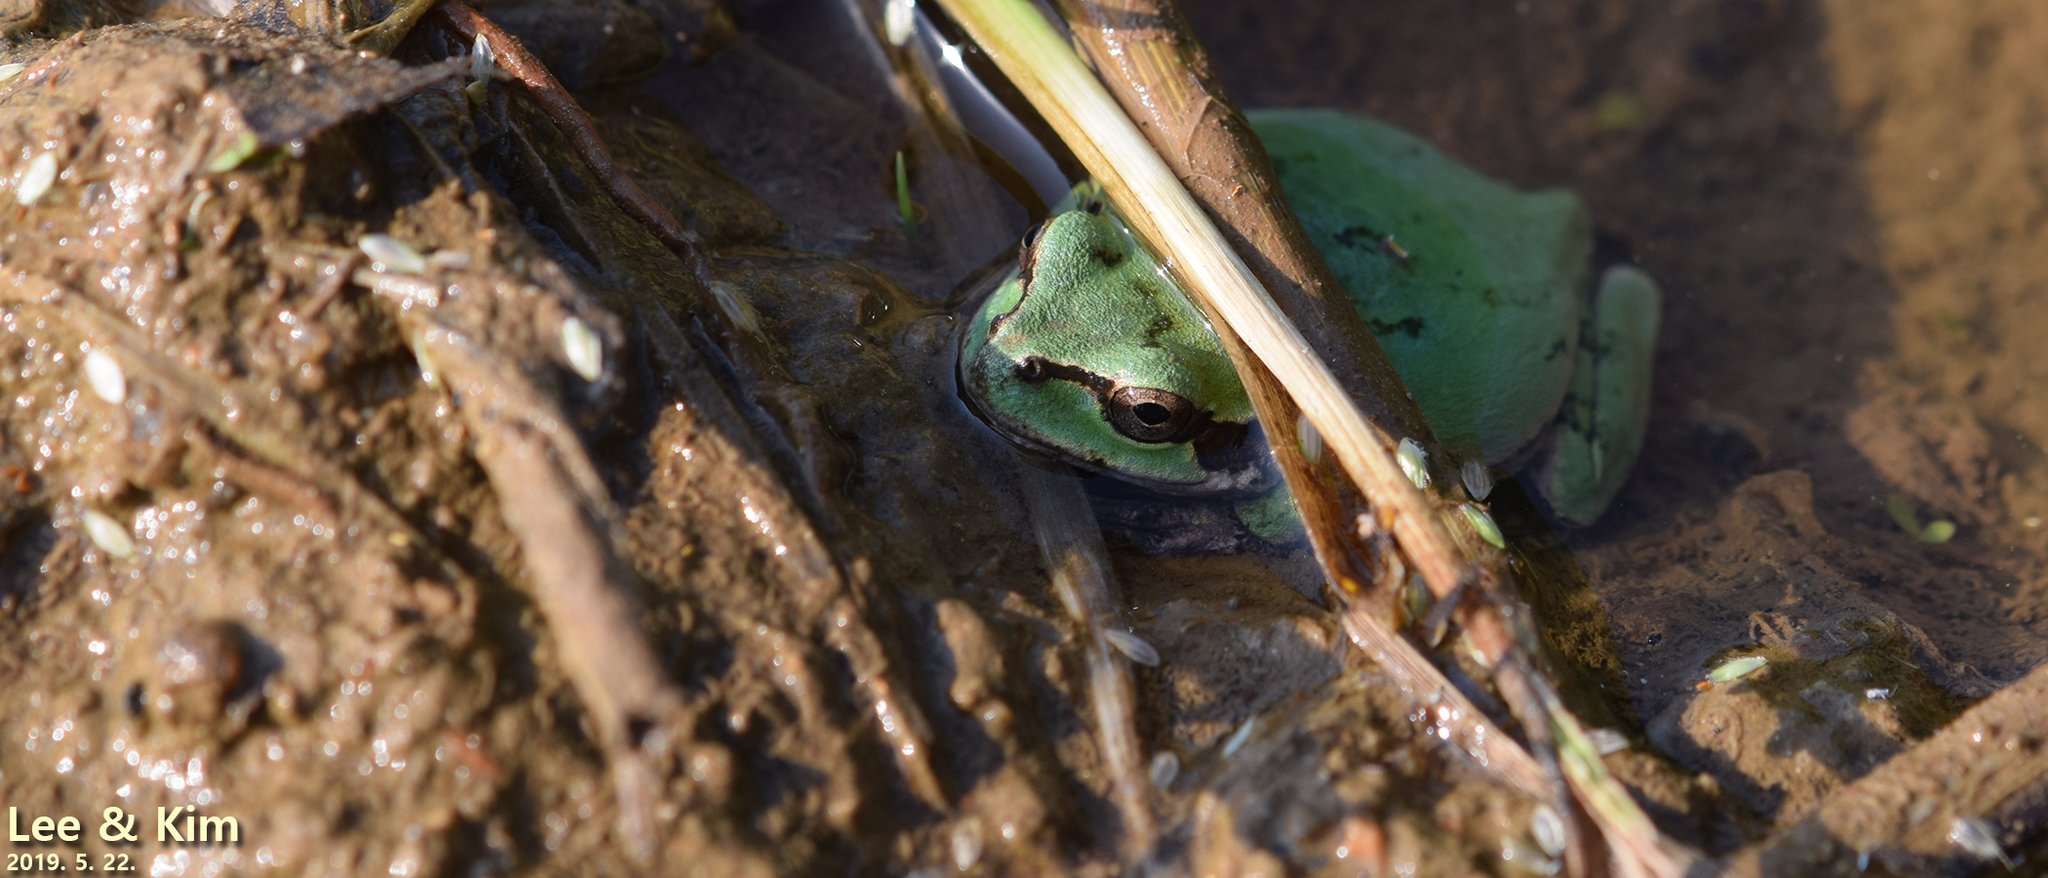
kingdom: Animalia
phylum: Chordata
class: Amphibia
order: Anura
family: Hylidae
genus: Dryophytes
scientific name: Dryophytes japonicus
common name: Japanese treefrog
